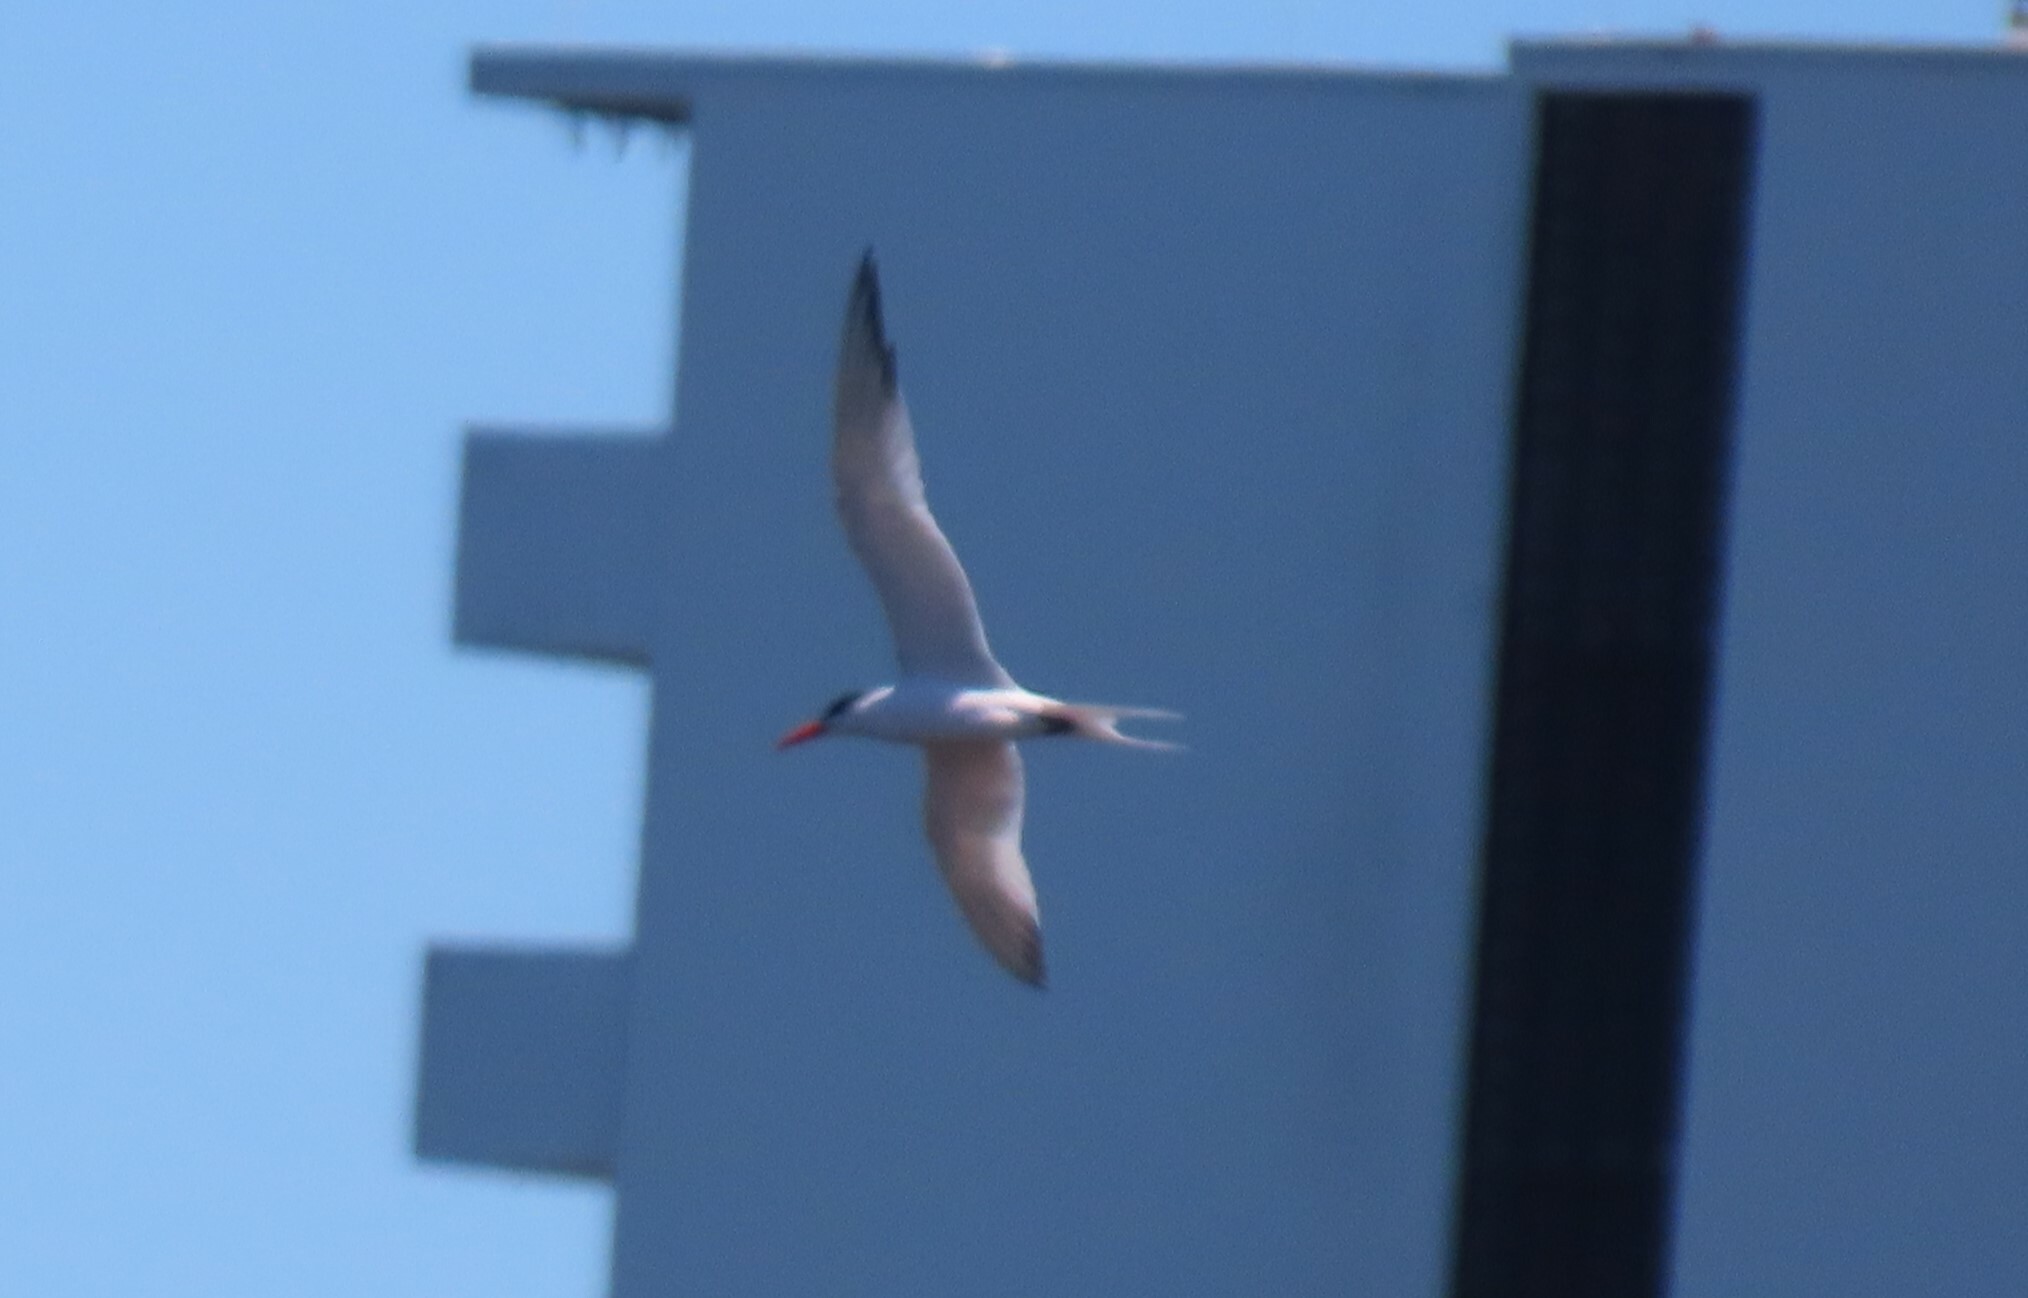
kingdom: Animalia
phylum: Chordata
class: Aves
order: Charadriiformes
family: Laridae
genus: Thalasseus
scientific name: Thalasseus maximus
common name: Royal tern
